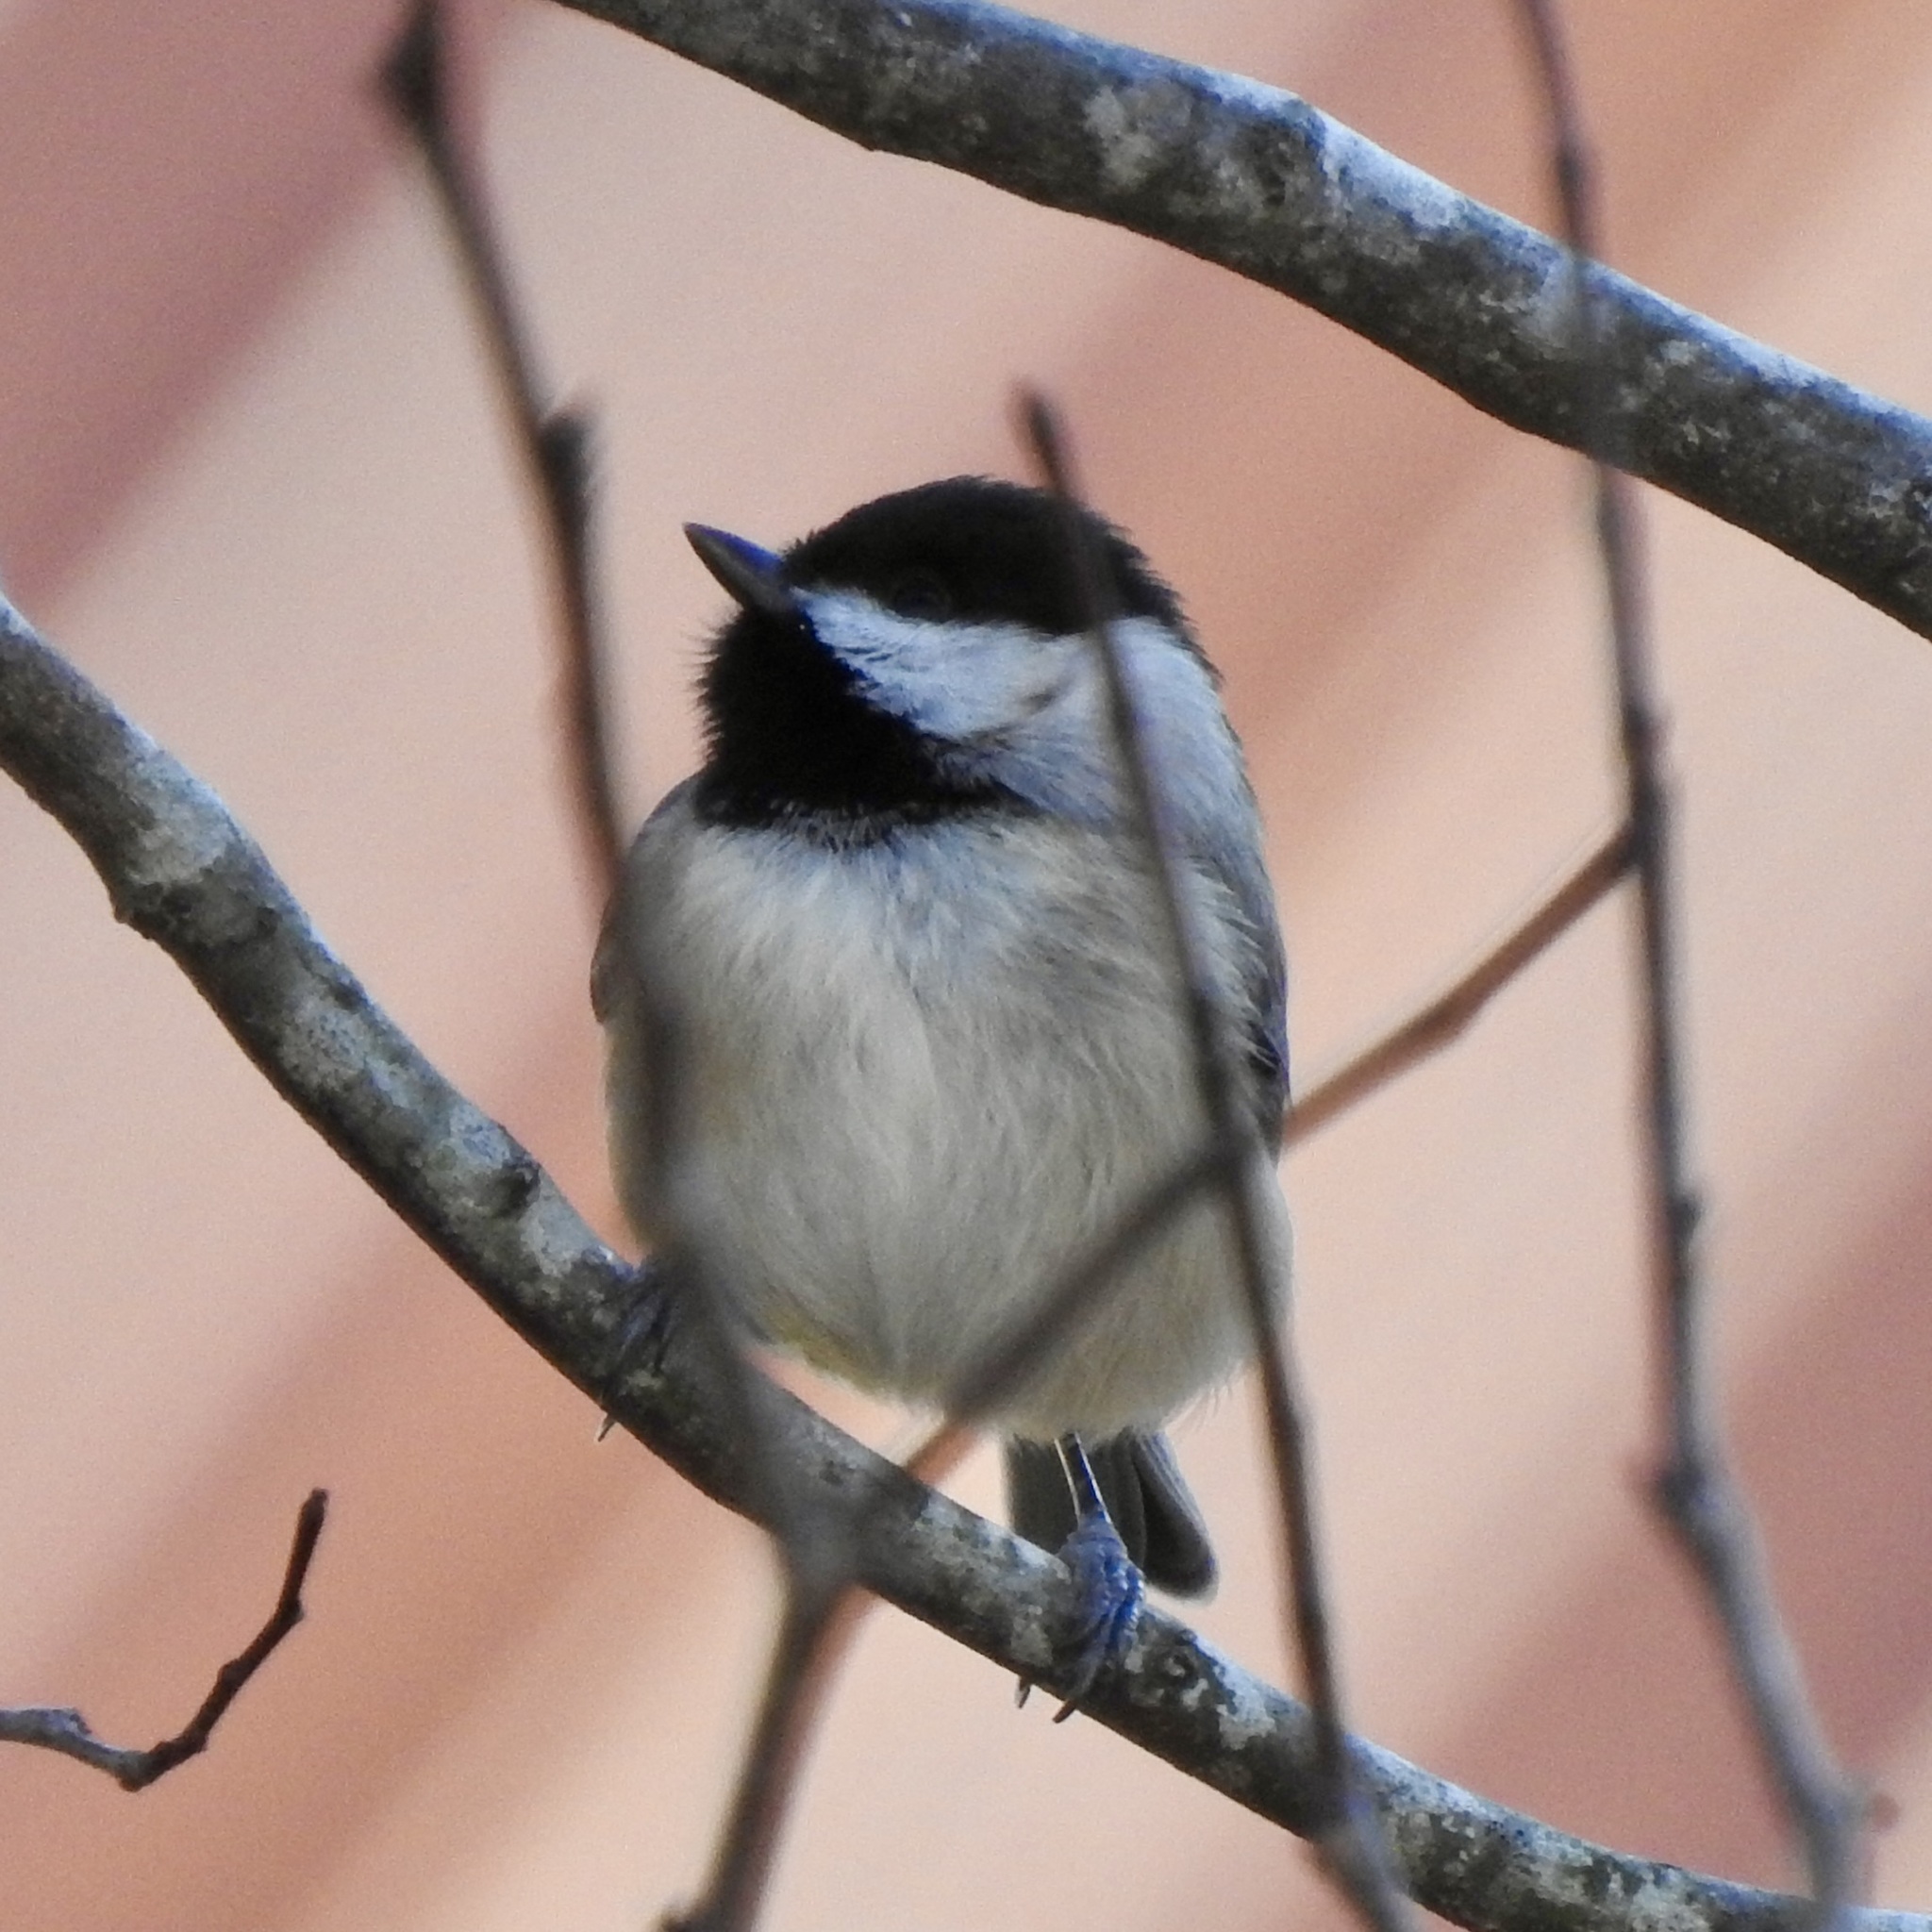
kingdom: Animalia
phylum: Chordata
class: Aves
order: Passeriformes
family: Paridae
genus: Poecile
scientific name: Poecile carolinensis
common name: Carolina chickadee
